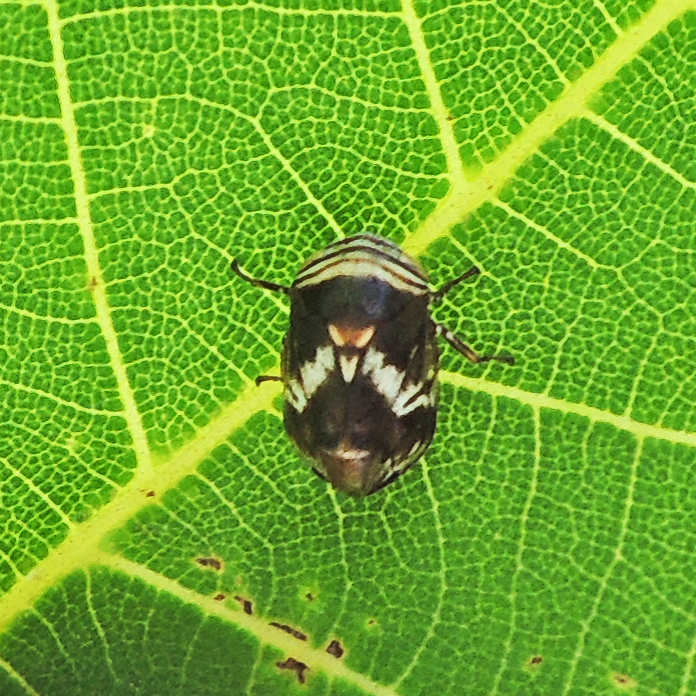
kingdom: Animalia
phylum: Arthropoda
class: Insecta
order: Hemiptera
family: Clastopteridae
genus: Clastoptera
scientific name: Clastoptera obtusa
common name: Alder spittlebug
